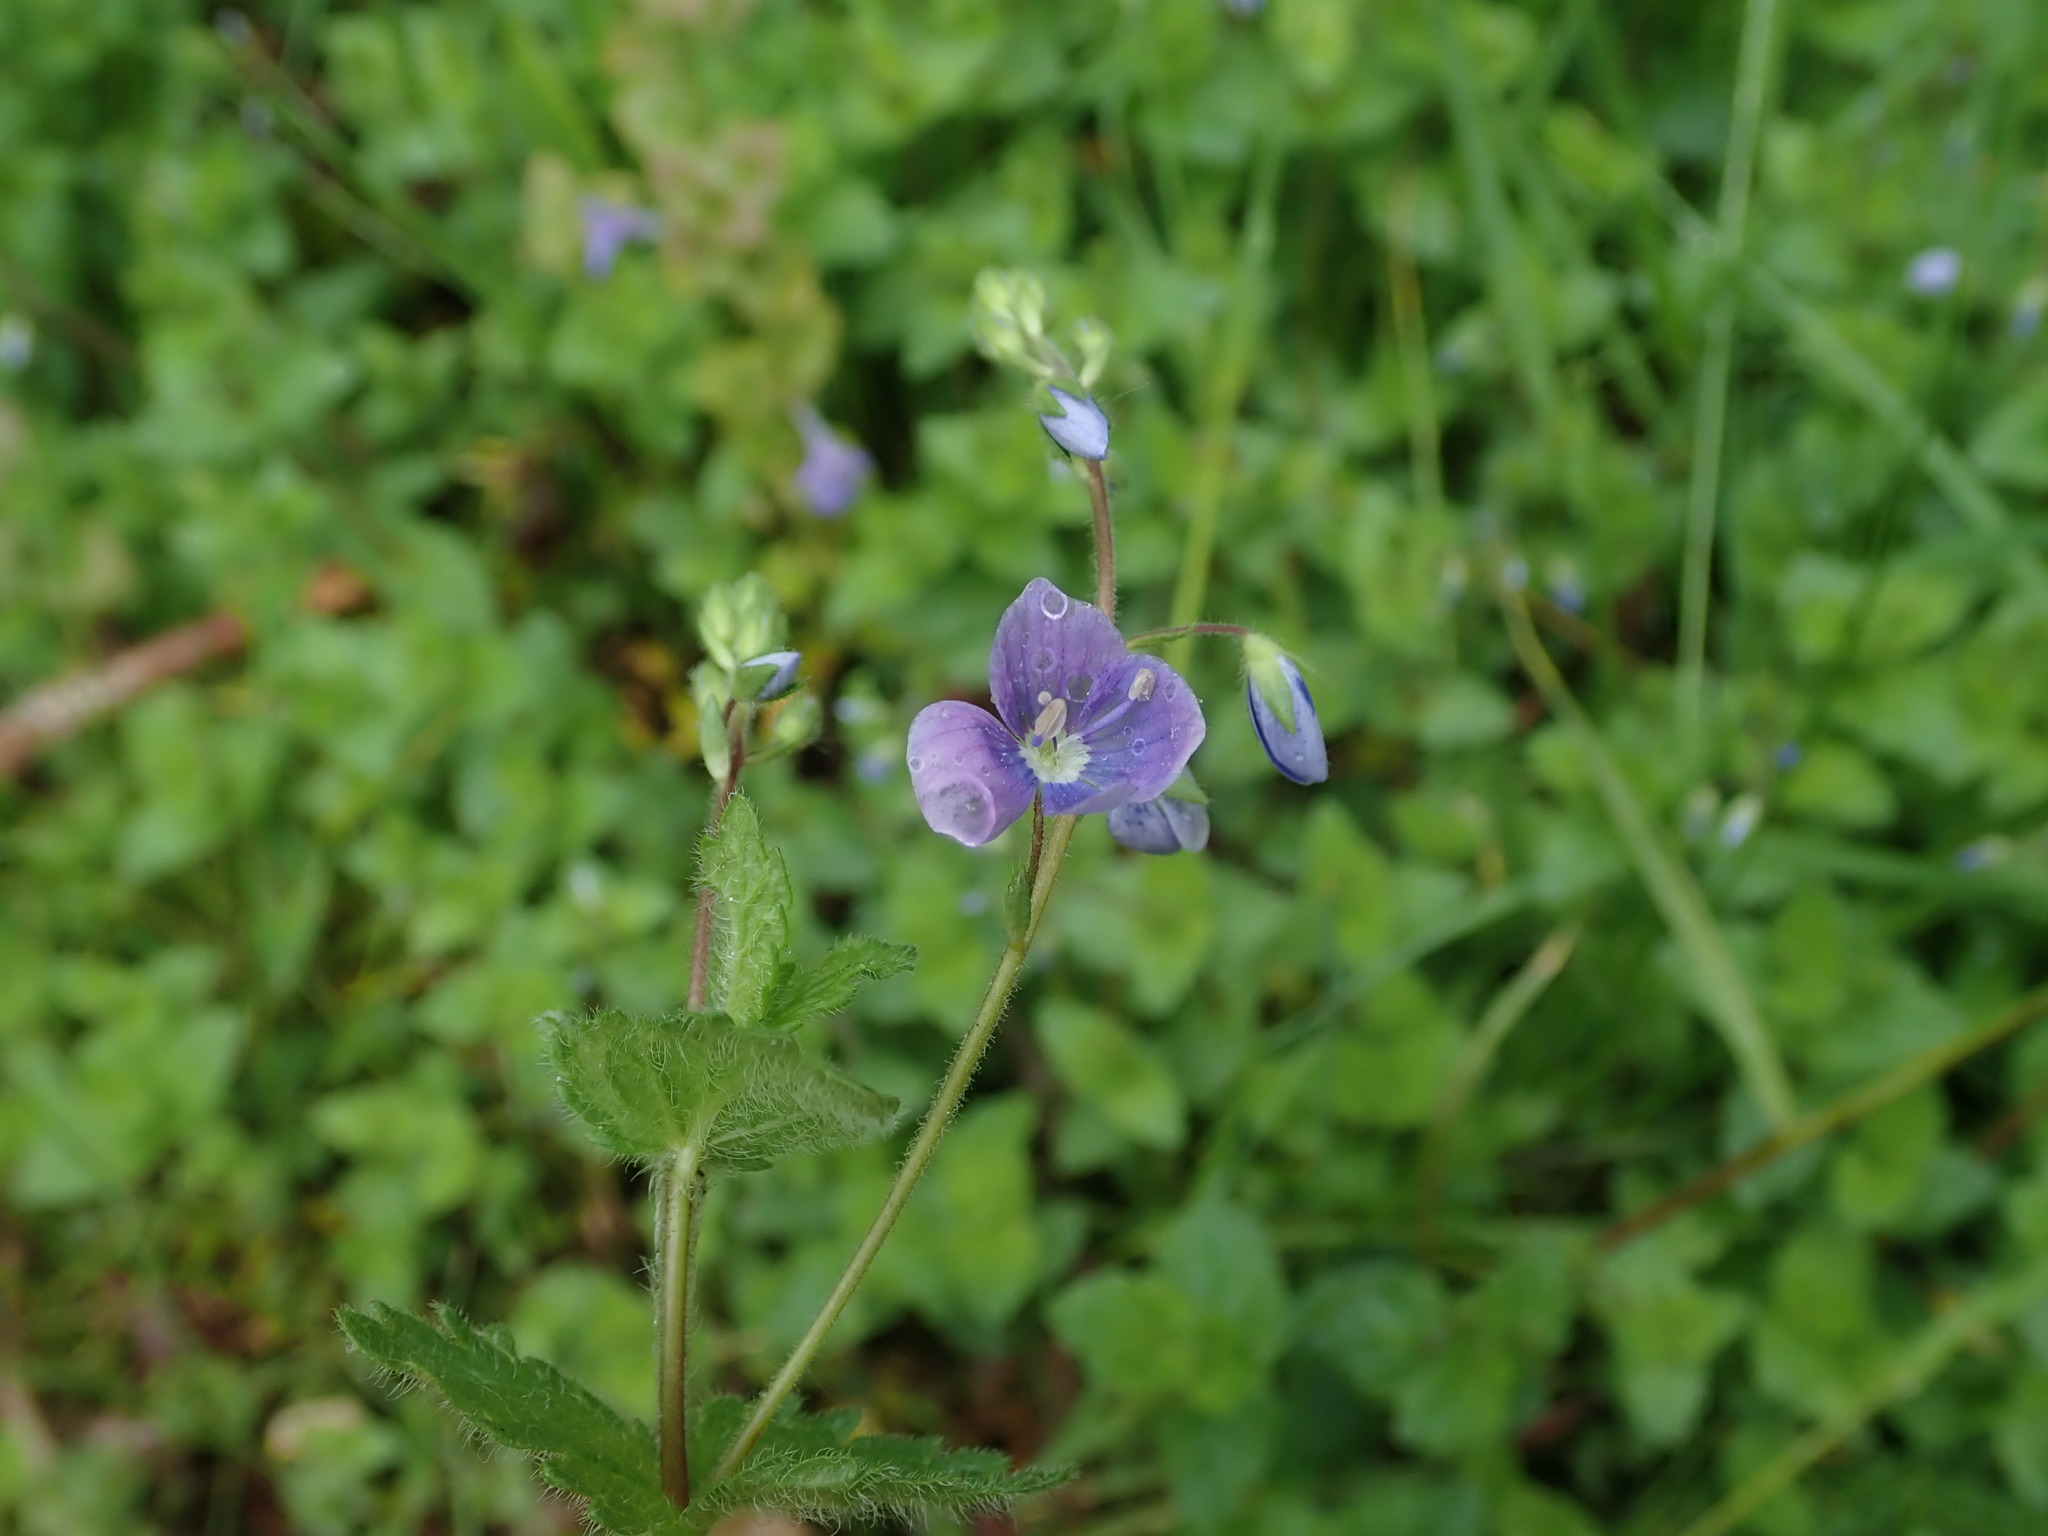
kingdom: Plantae
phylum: Tracheophyta
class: Magnoliopsida
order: Lamiales
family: Plantaginaceae
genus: Veronica
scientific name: Veronica chamaedrys
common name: Germander speedwell
